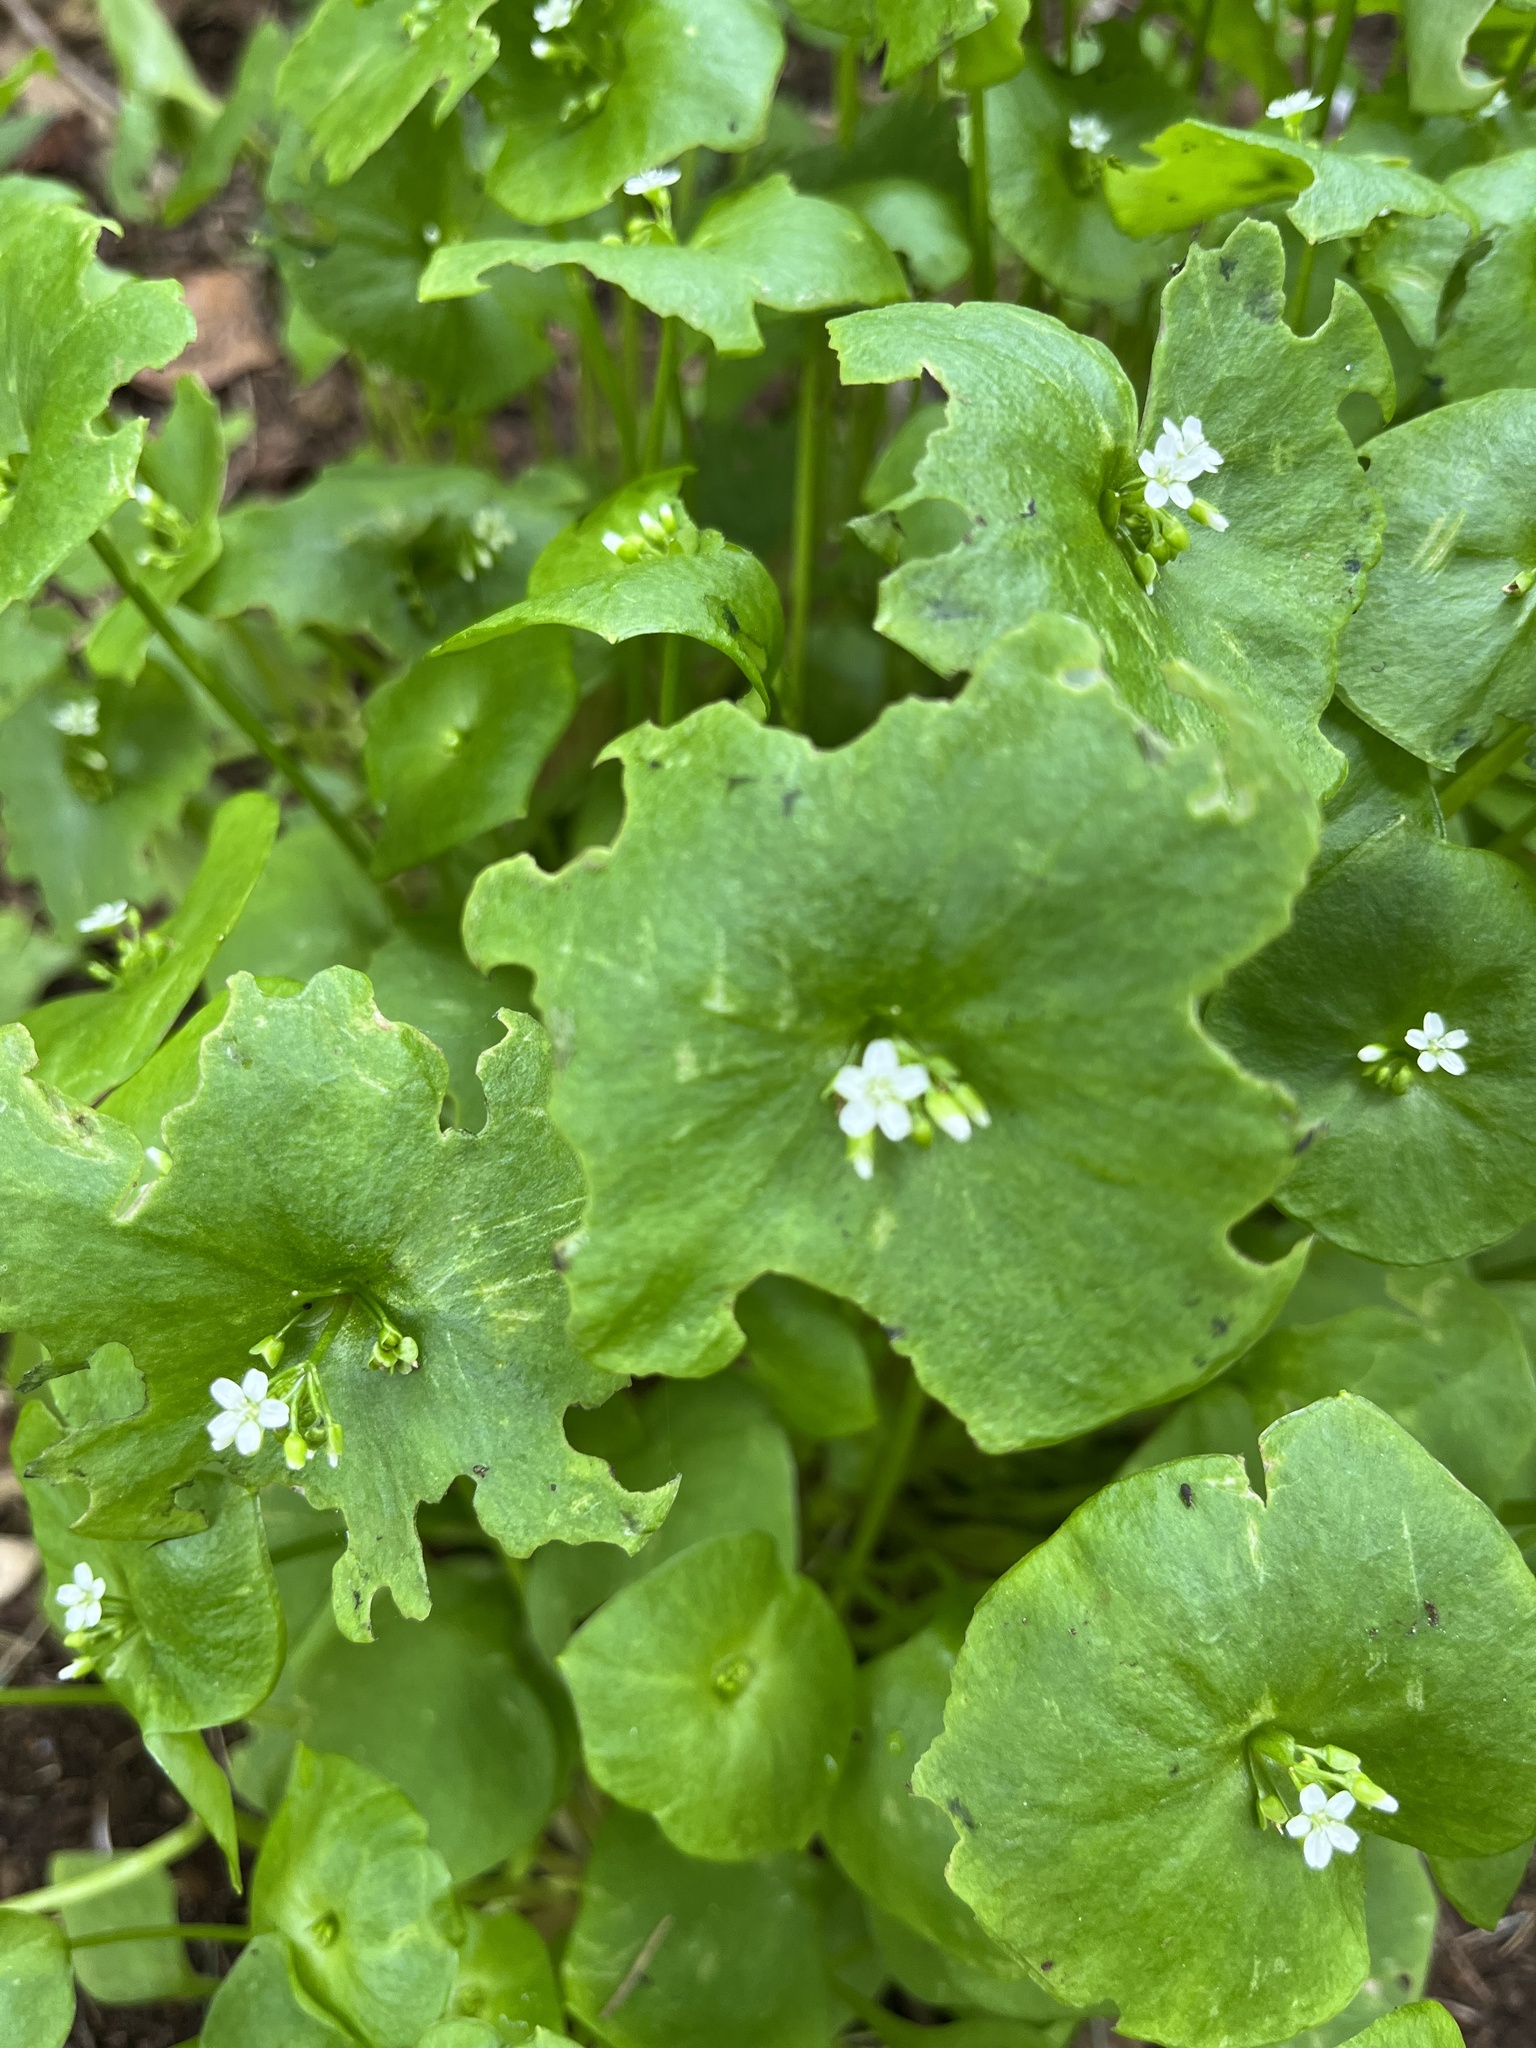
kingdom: Plantae
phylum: Tracheophyta
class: Magnoliopsida
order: Caryophyllales
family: Montiaceae
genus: Claytonia
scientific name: Claytonia perfoliata
